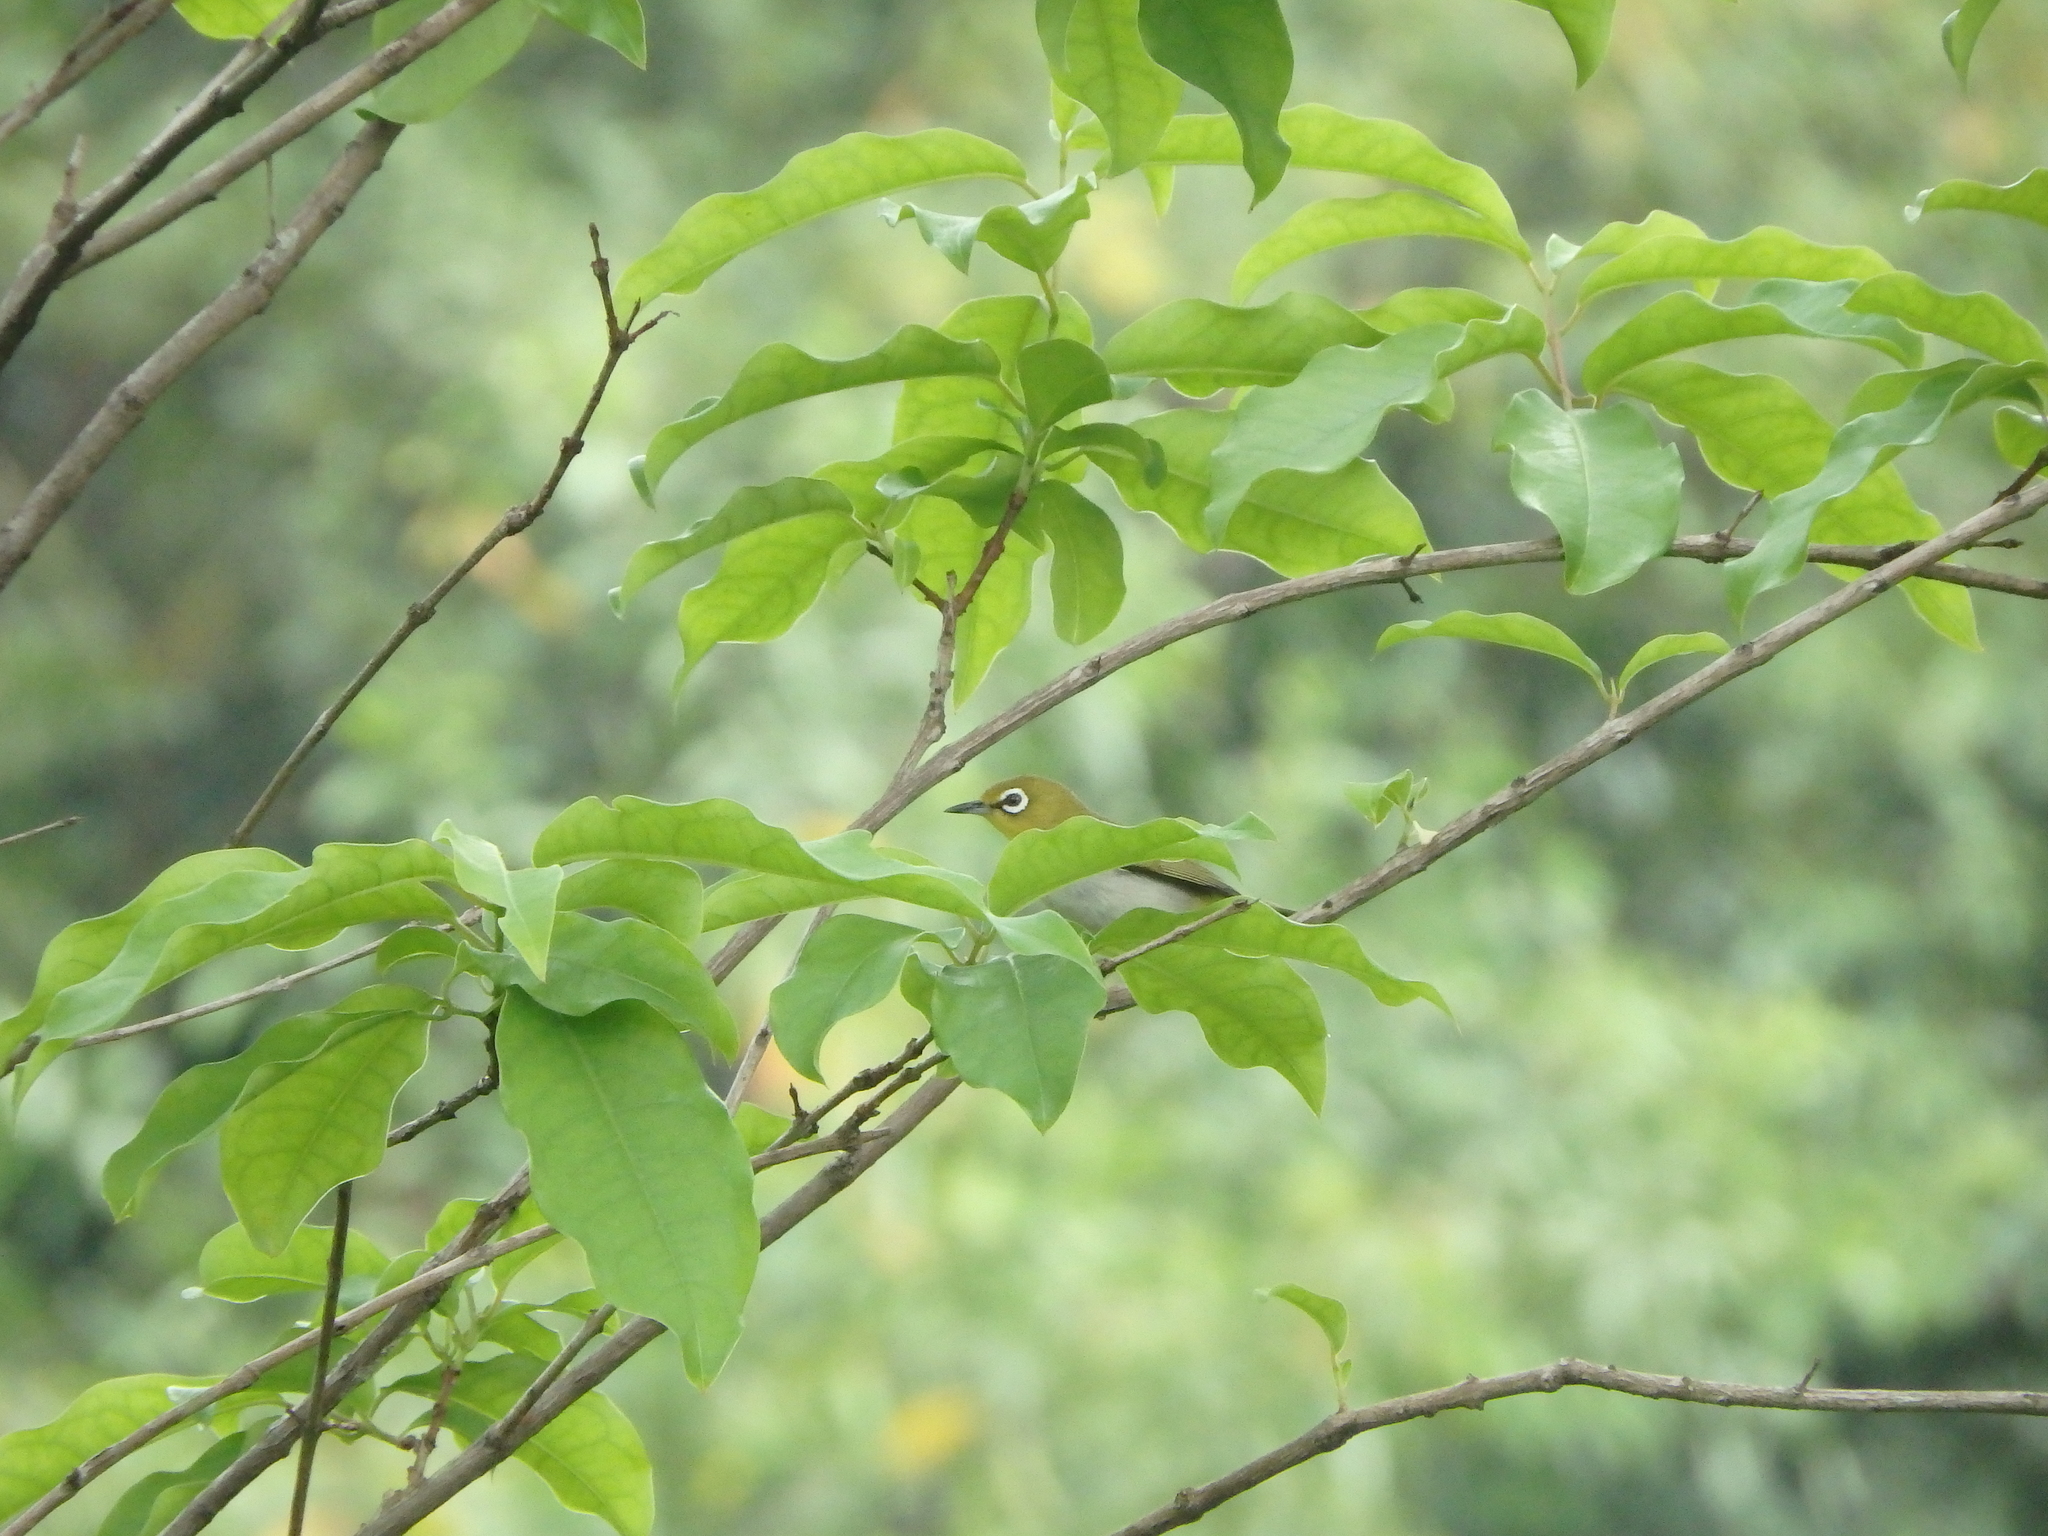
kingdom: Animalia
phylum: Chordata
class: Aves
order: Passeriformes
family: Zosteropidae
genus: Zosterops
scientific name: Zosterops simplex
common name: Swinhoe's white-eye
